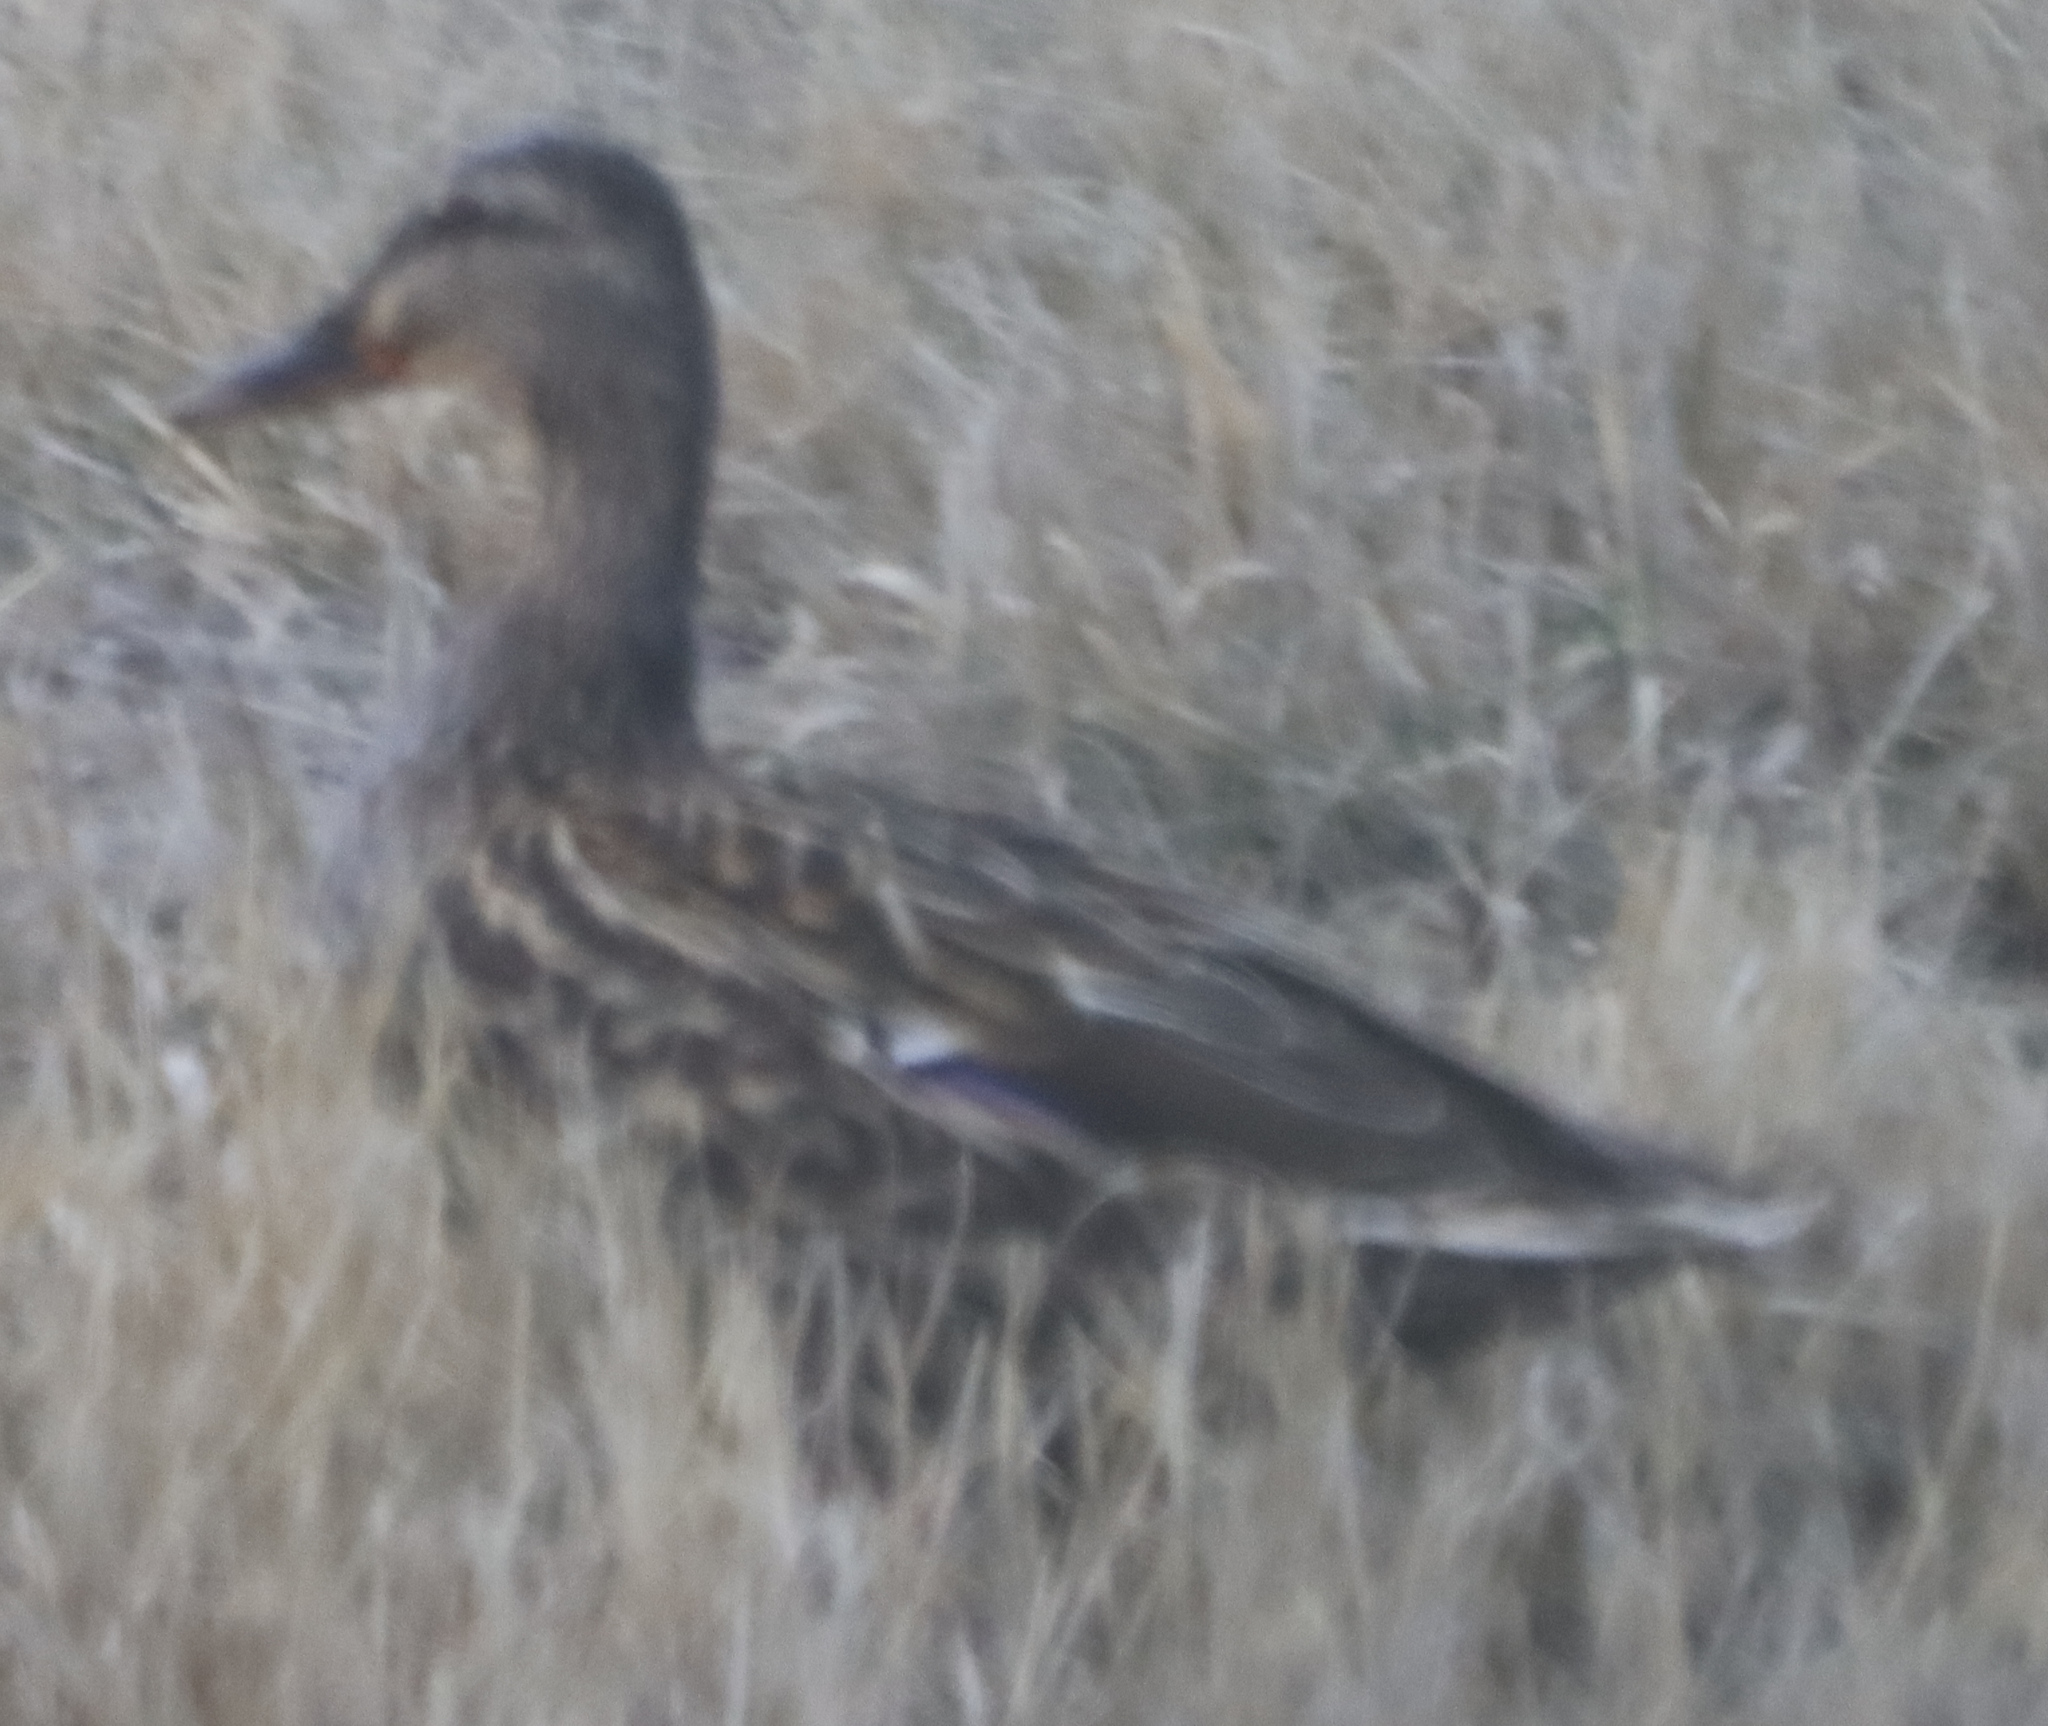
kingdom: Animalia
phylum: Chordata
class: Aves
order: Anseriformes
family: Anatidae
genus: Anas
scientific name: Anas platyrhynchos
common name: Mallard
